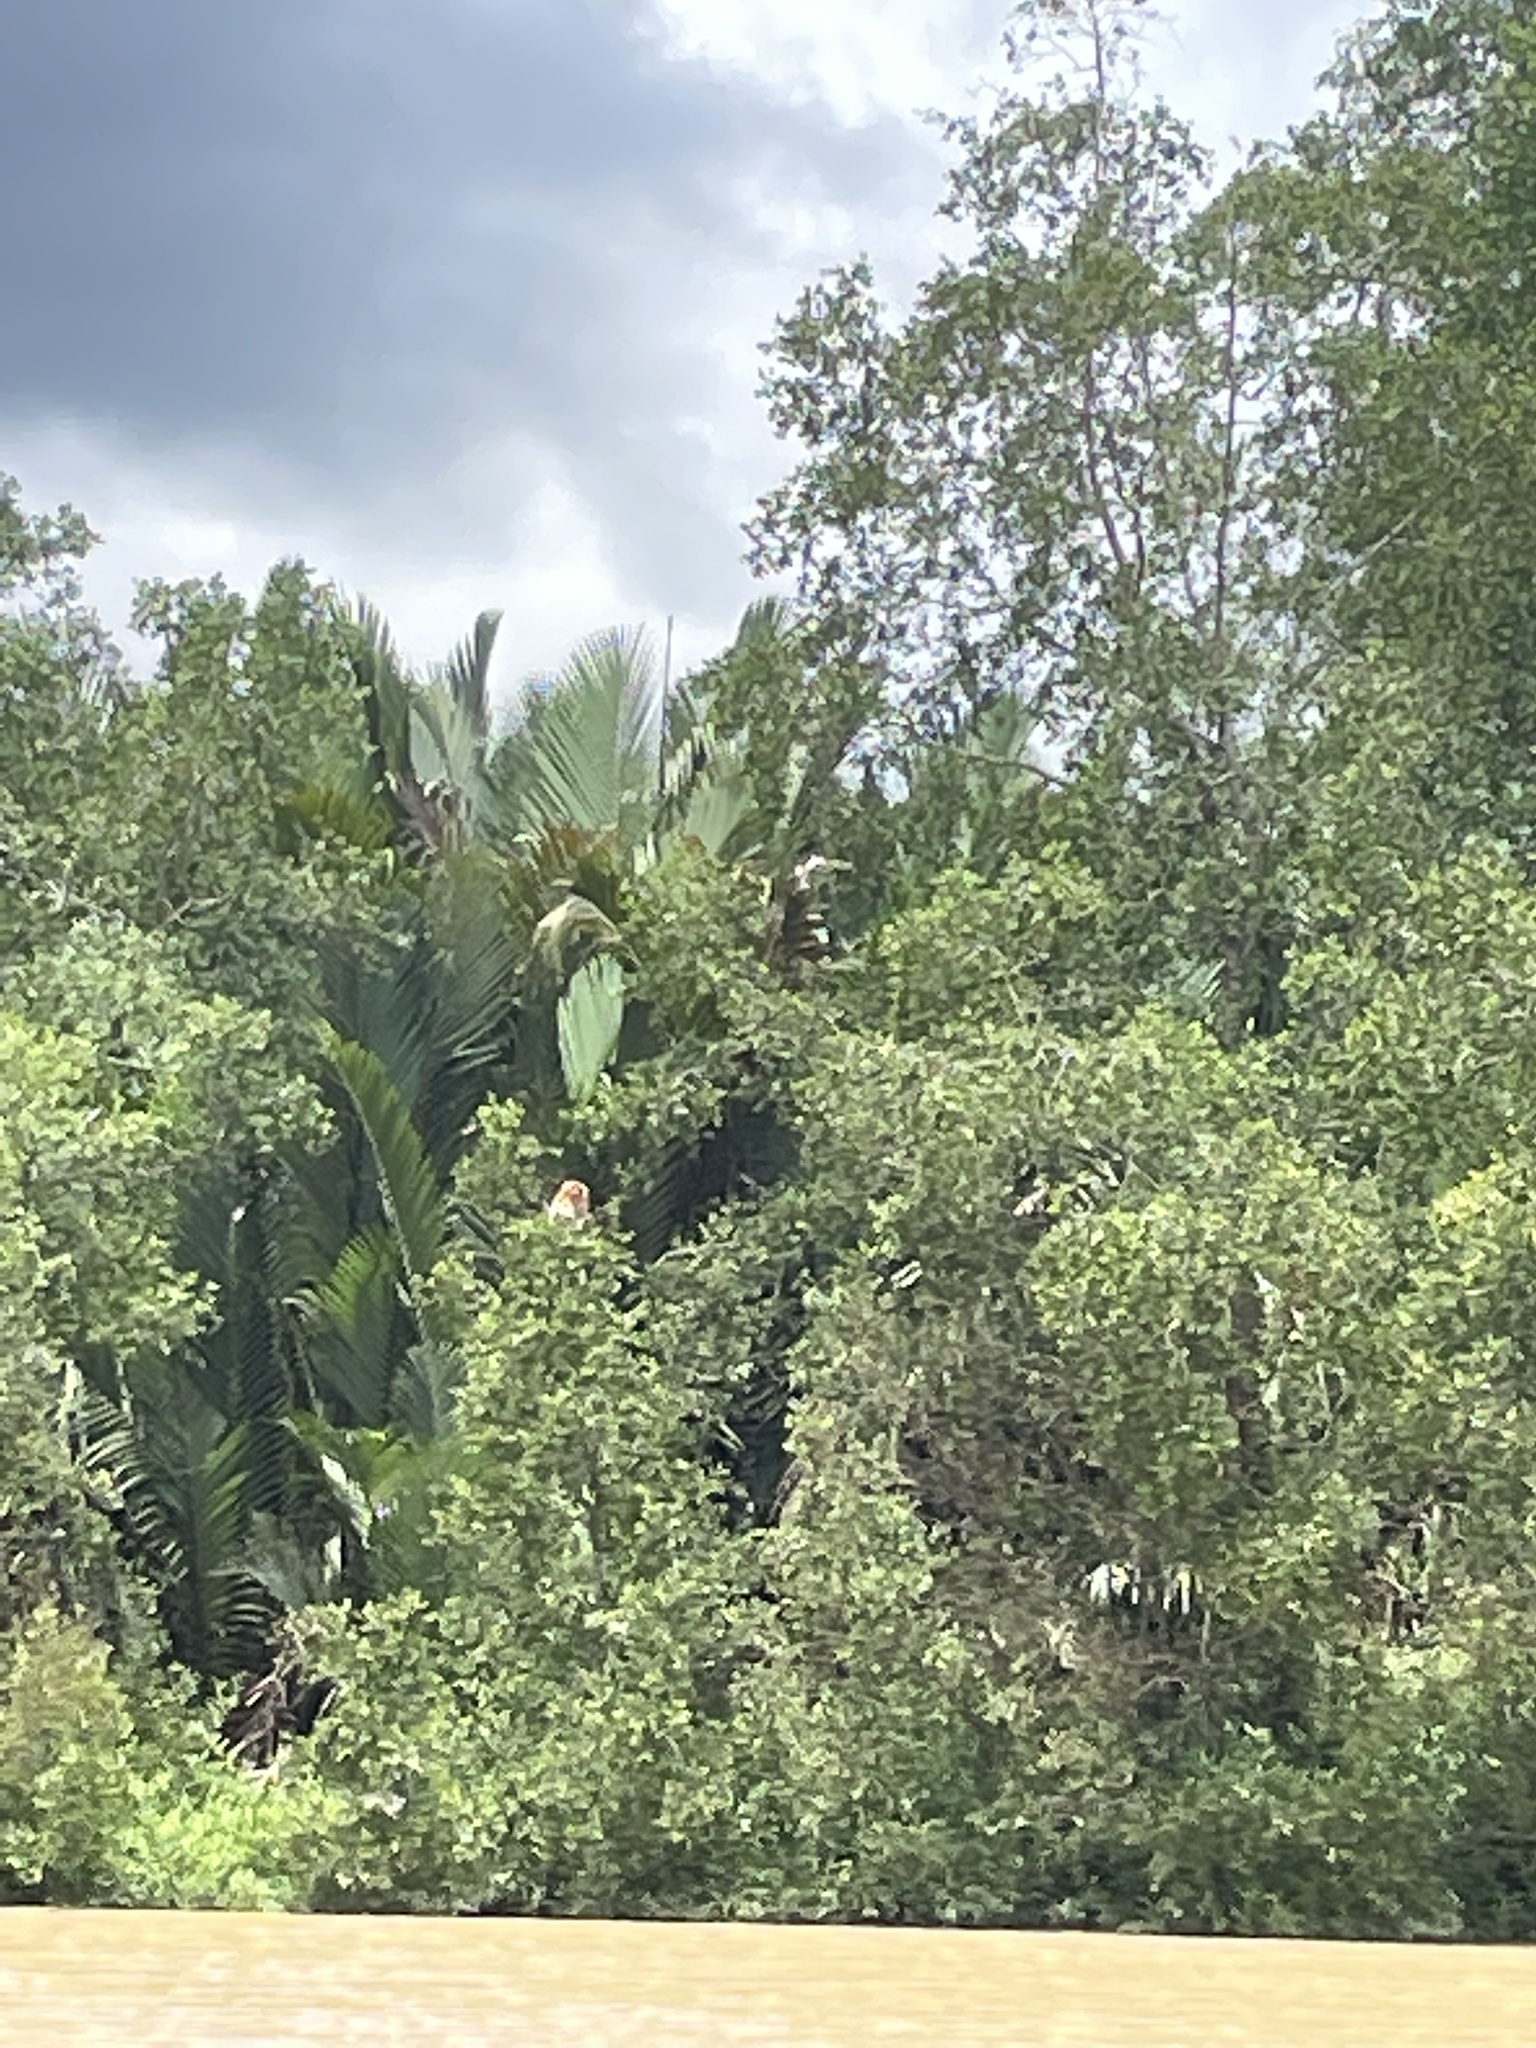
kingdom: Animalia
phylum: Chordata
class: Mammalia
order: Primates
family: Cercopithecidae
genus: Nasalis
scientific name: Nasalis larvatus
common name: Proboscis monkey
